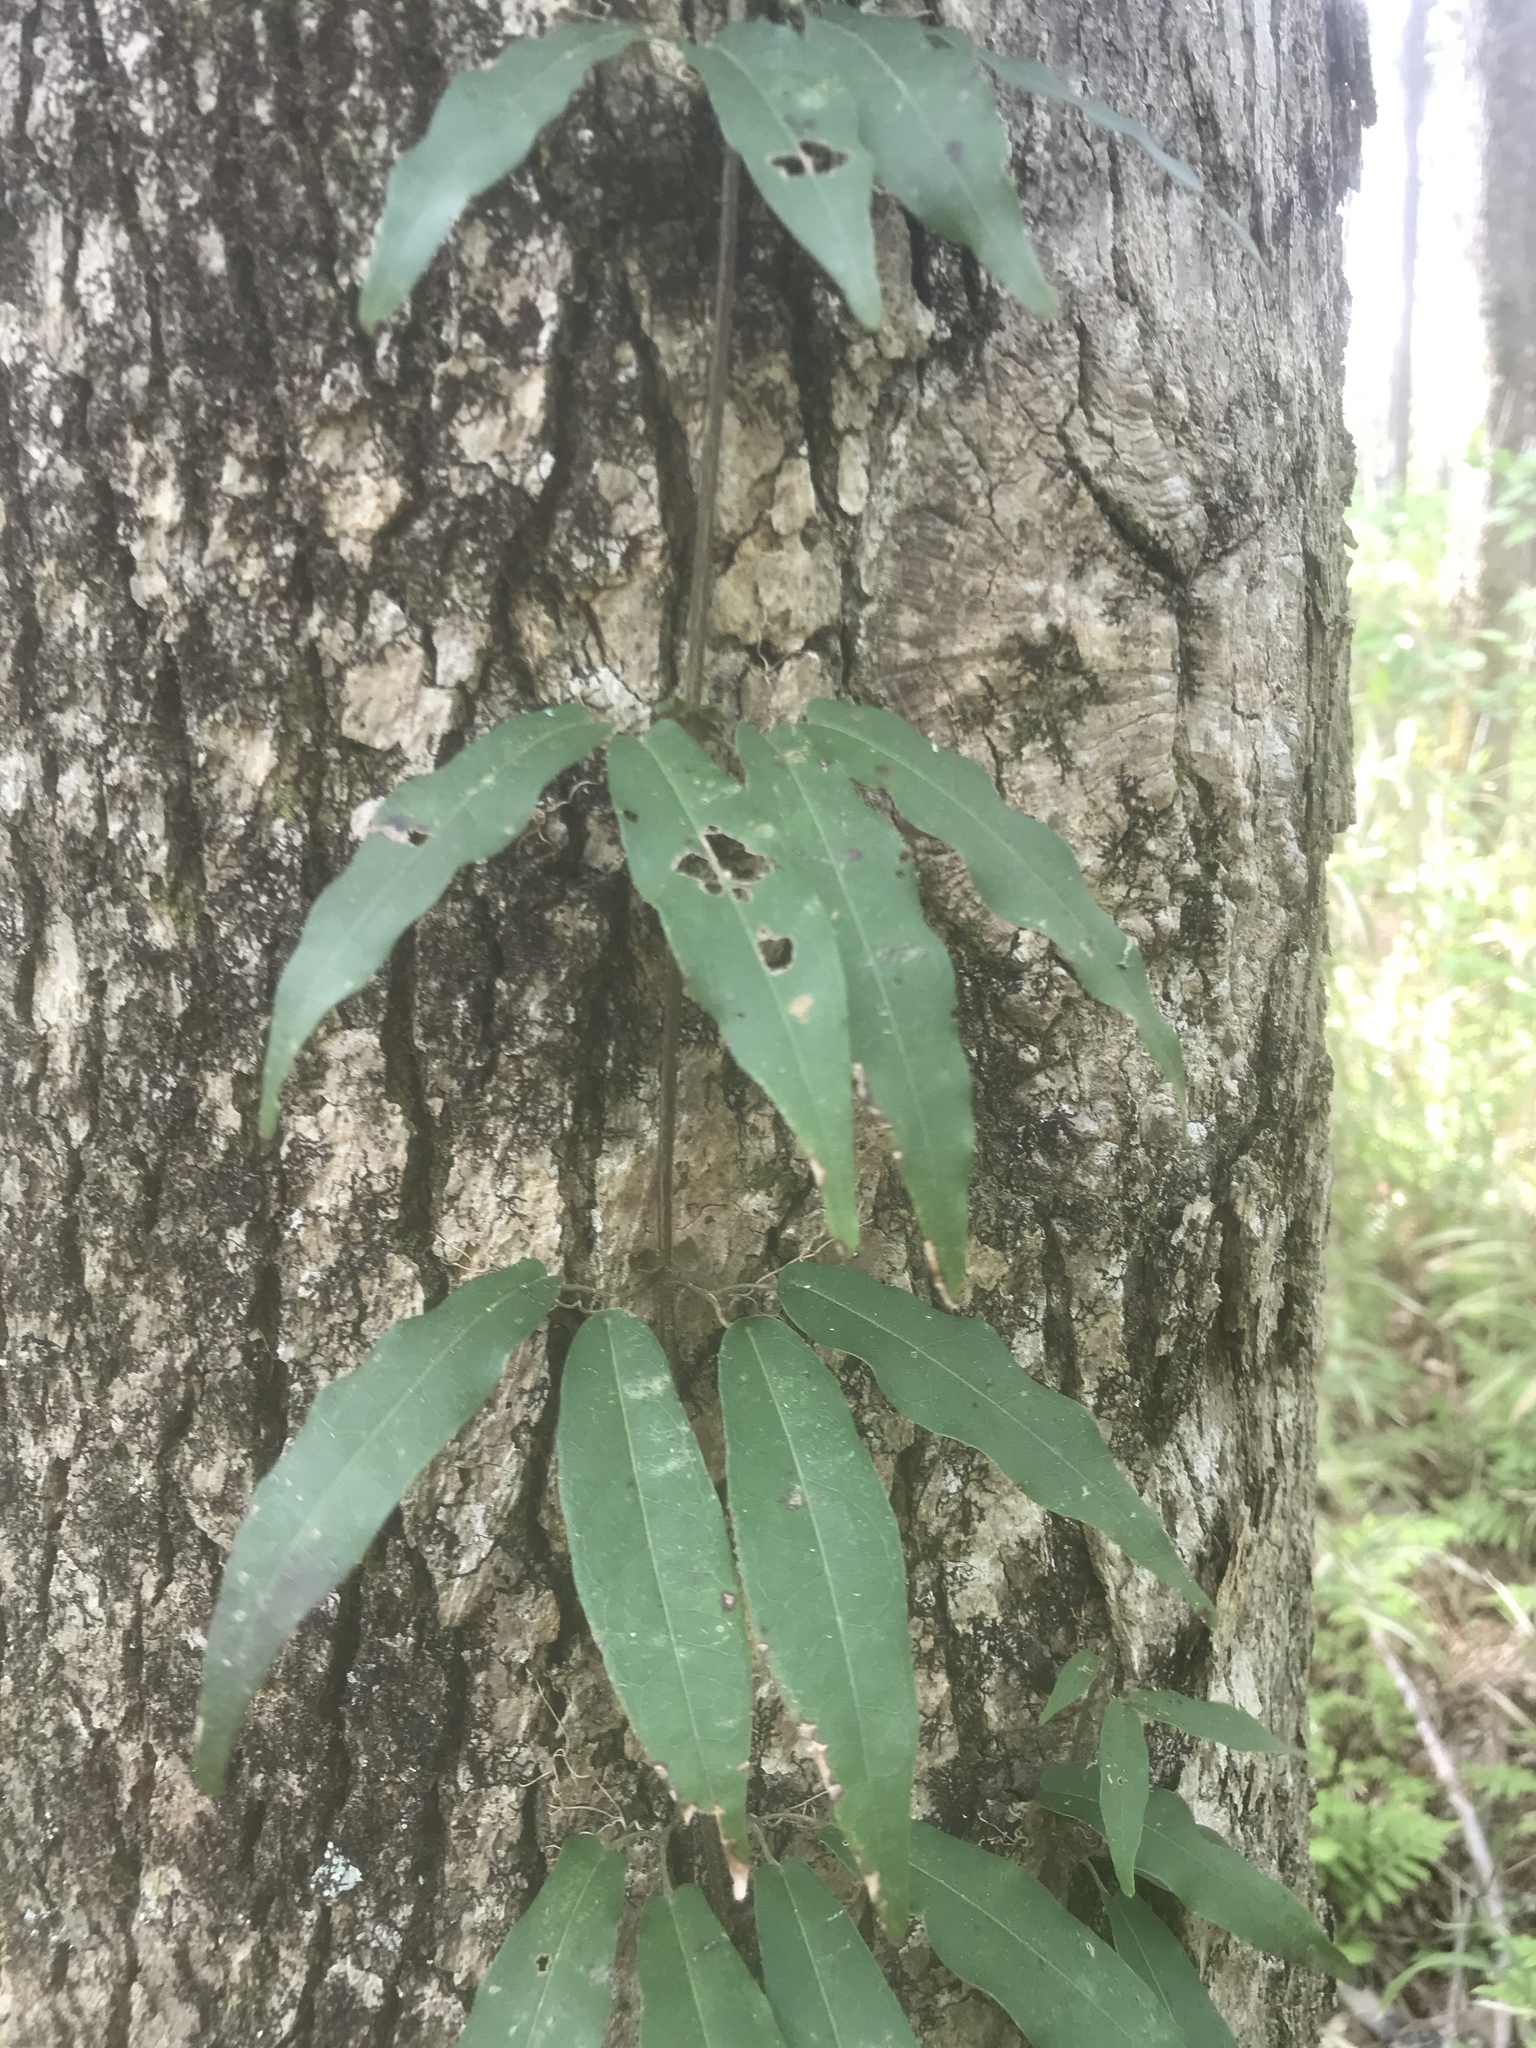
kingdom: Plantae
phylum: Tracheophyta
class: Magnoliopsida
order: Lamiales
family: Bignoniaceae
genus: Bignonia
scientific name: Bignonia capreolata
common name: Crossvine
